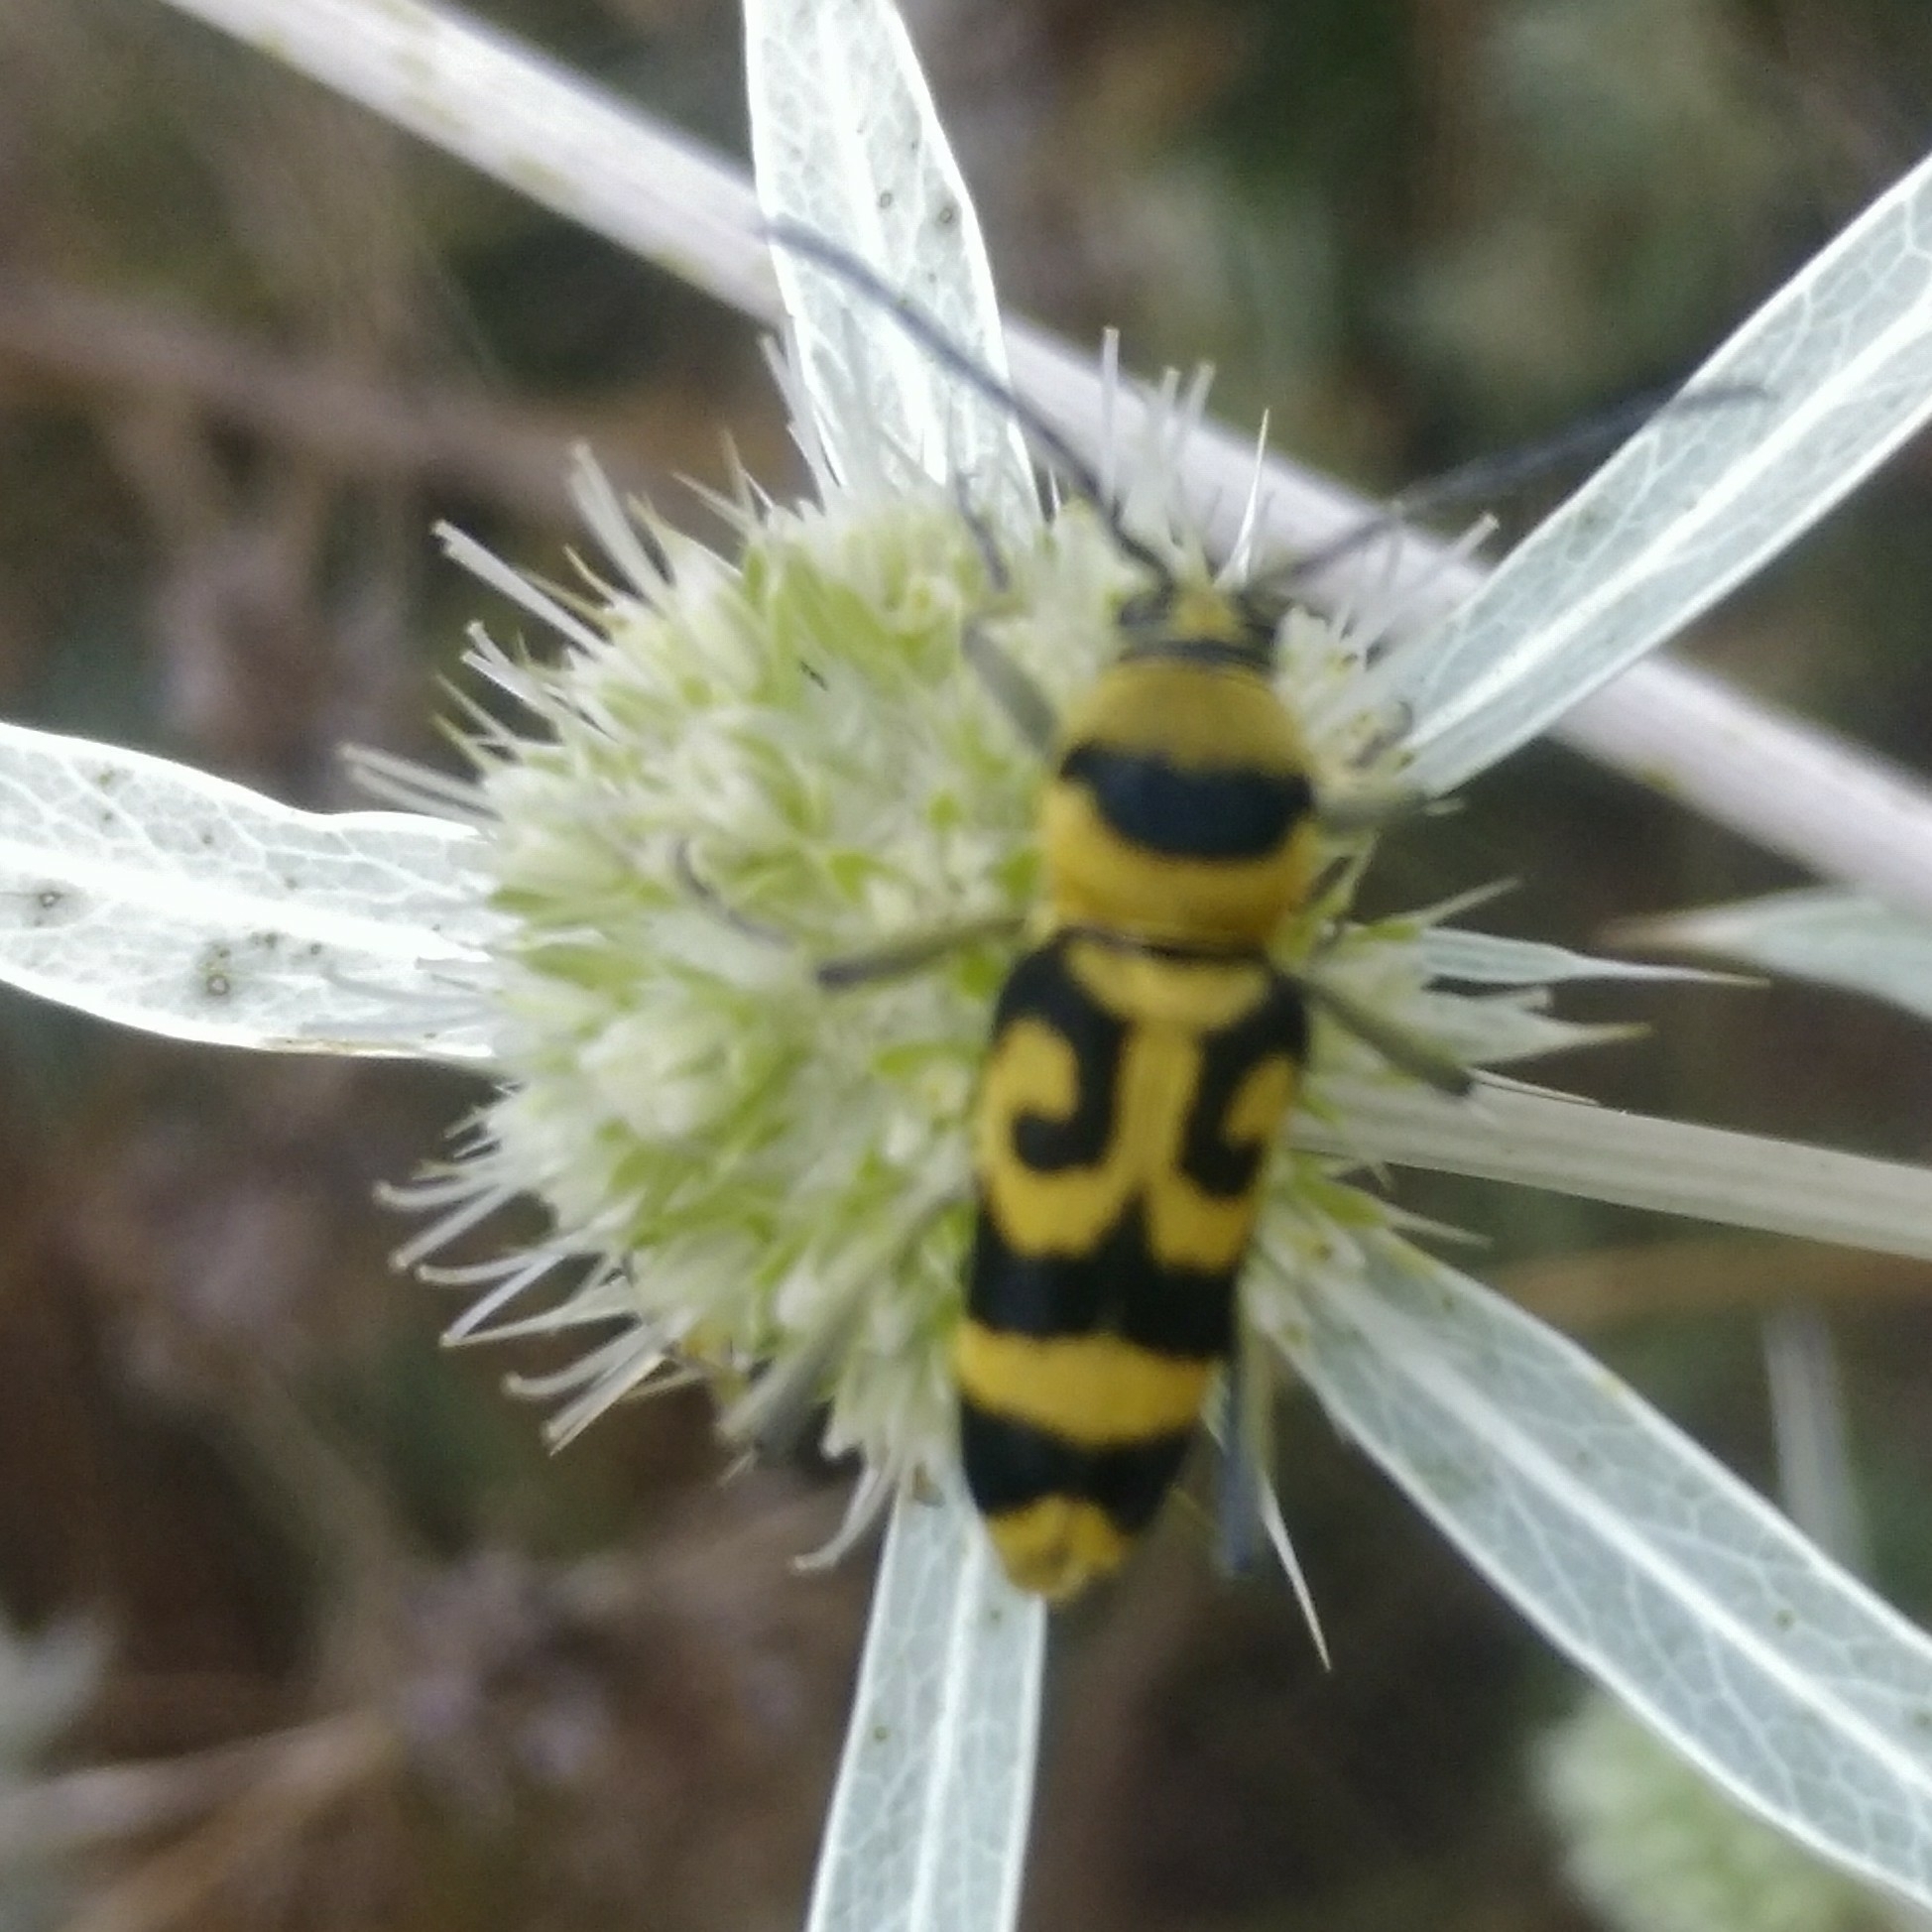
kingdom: Animalia
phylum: Arthropoda
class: Insecta
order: Coleoptera
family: Cerambycidae
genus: Chlorophorus
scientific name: Chlorophorus varius
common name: Grape wood borer
